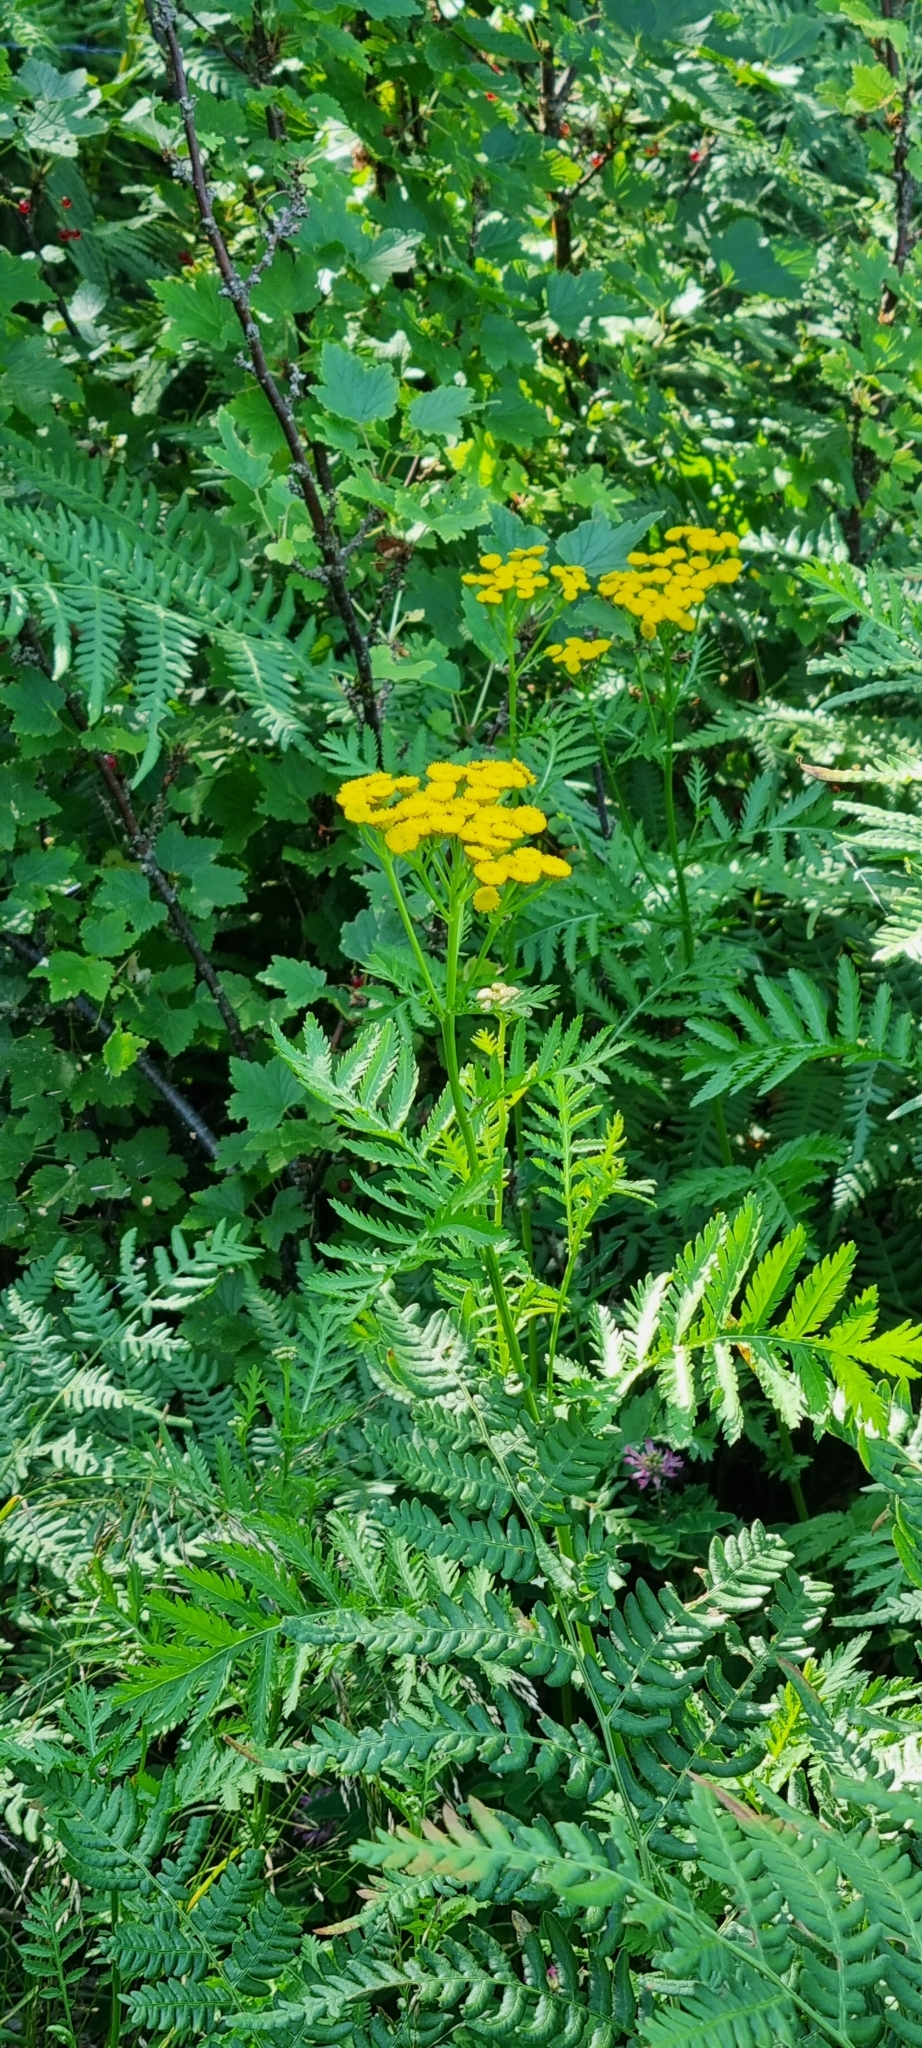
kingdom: Plantae
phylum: Tracheophyta
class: Magnoliopsida
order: Asterales
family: Asteraceae
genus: Tanacetum
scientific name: Tanacetum vulgare
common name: Common tansy
